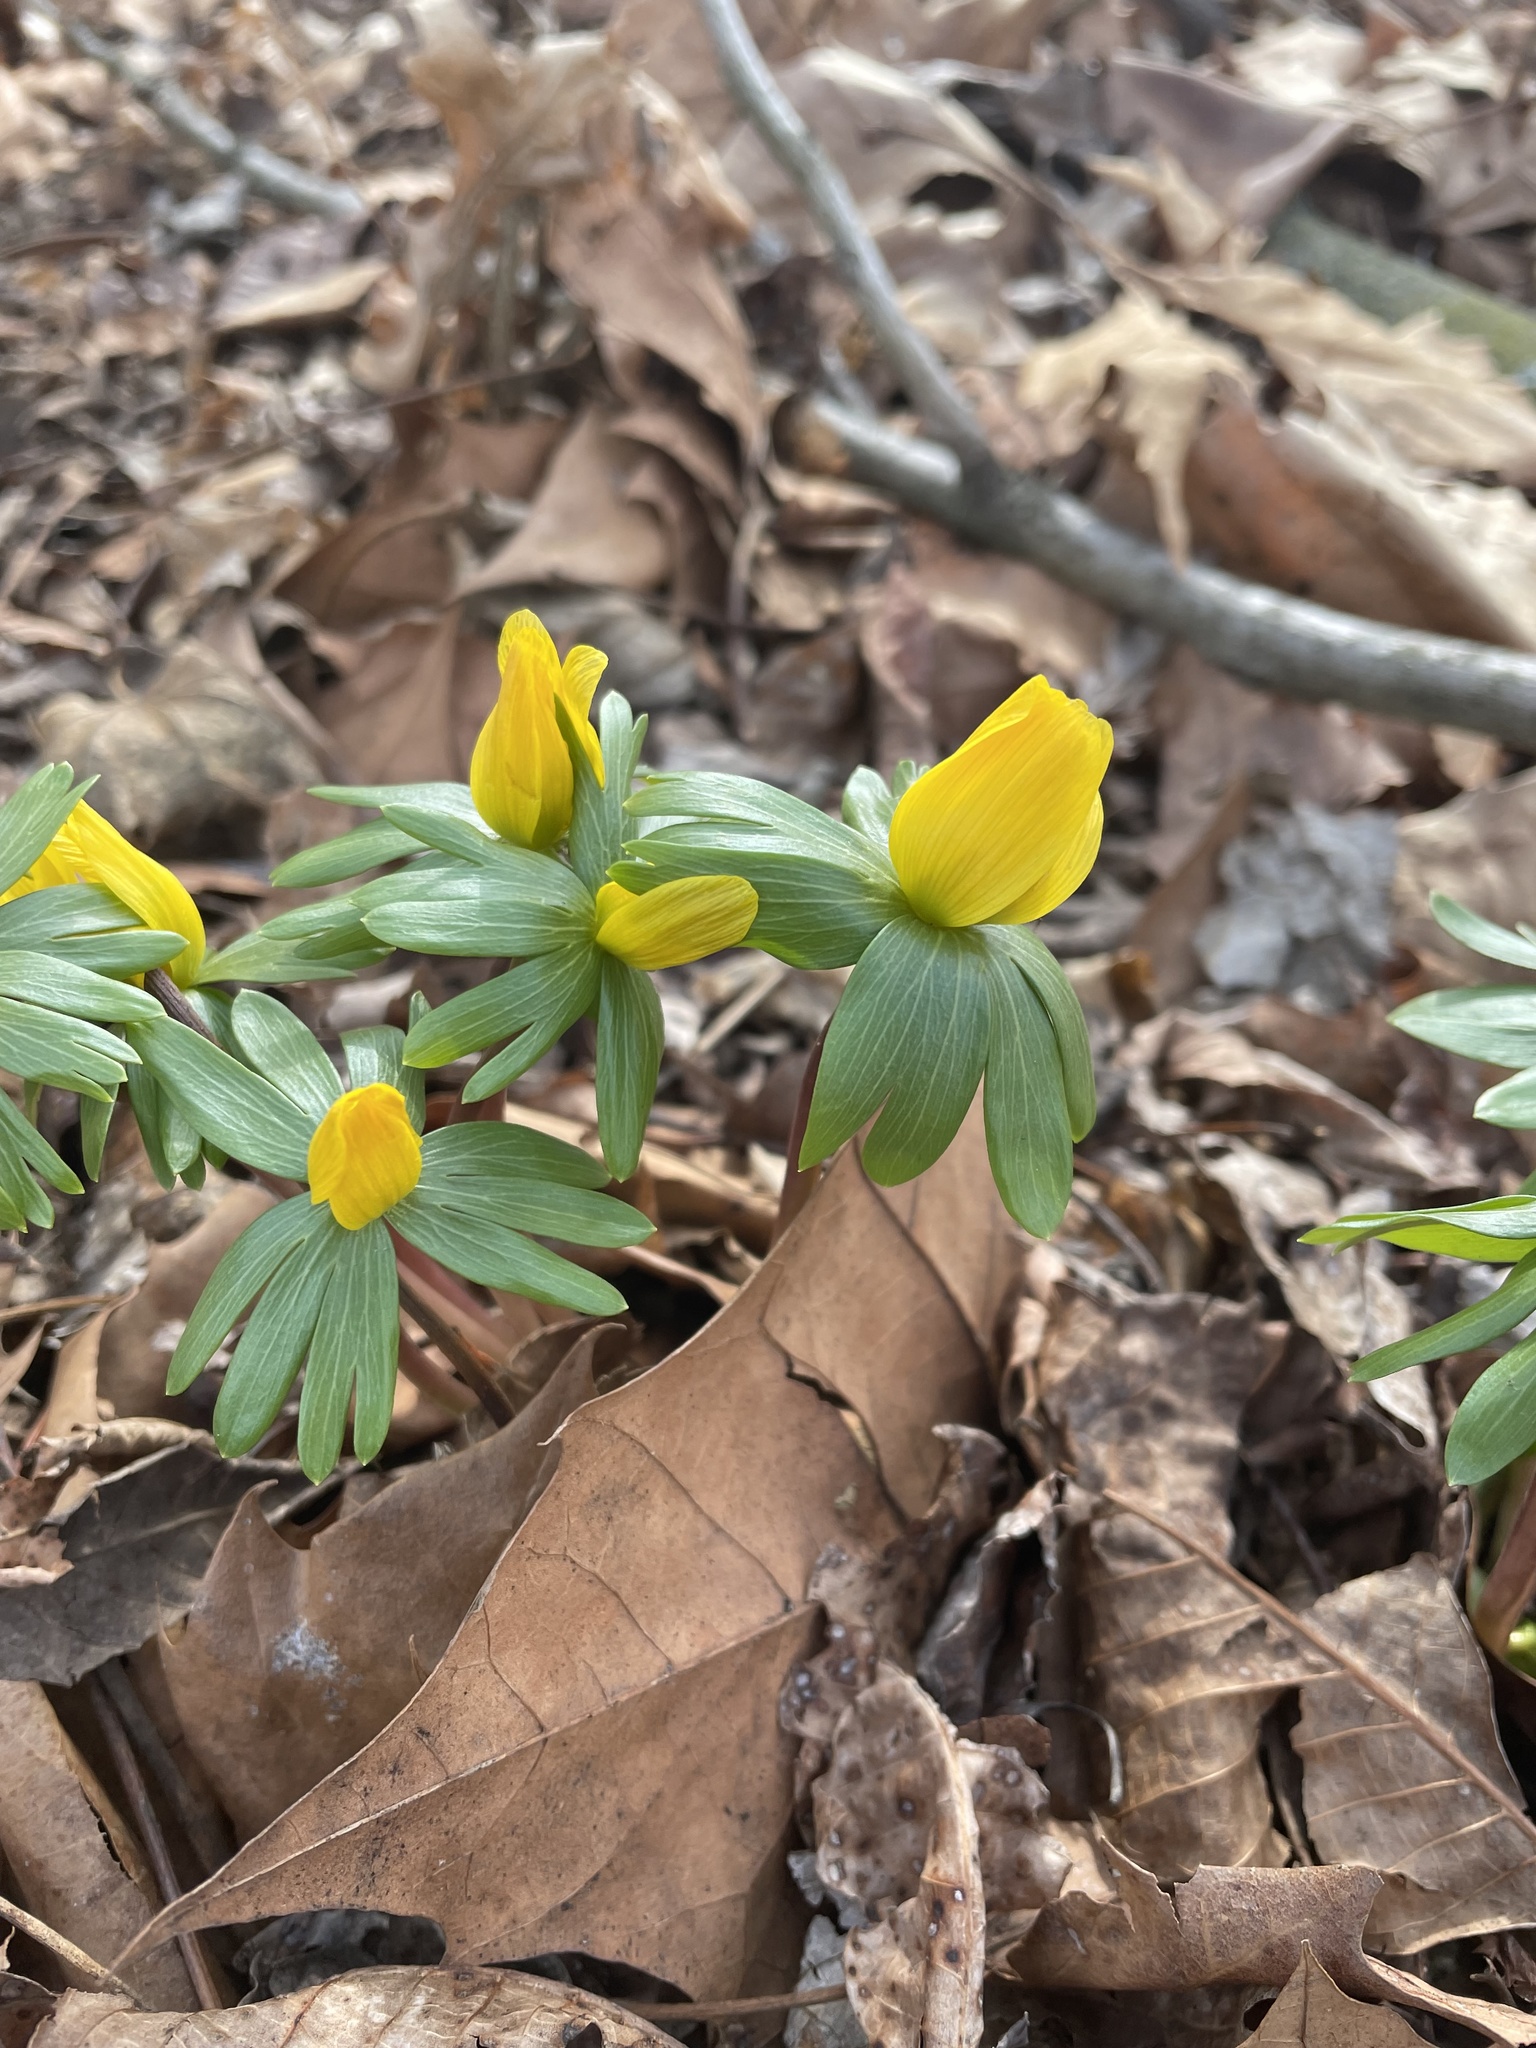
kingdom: Plantae
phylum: Tracheophyta
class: Magnoliopsida
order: Ranunculales
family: Ranunculaceae
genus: Eranthis
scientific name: Eranthis hyemalis
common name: Winter aconite
